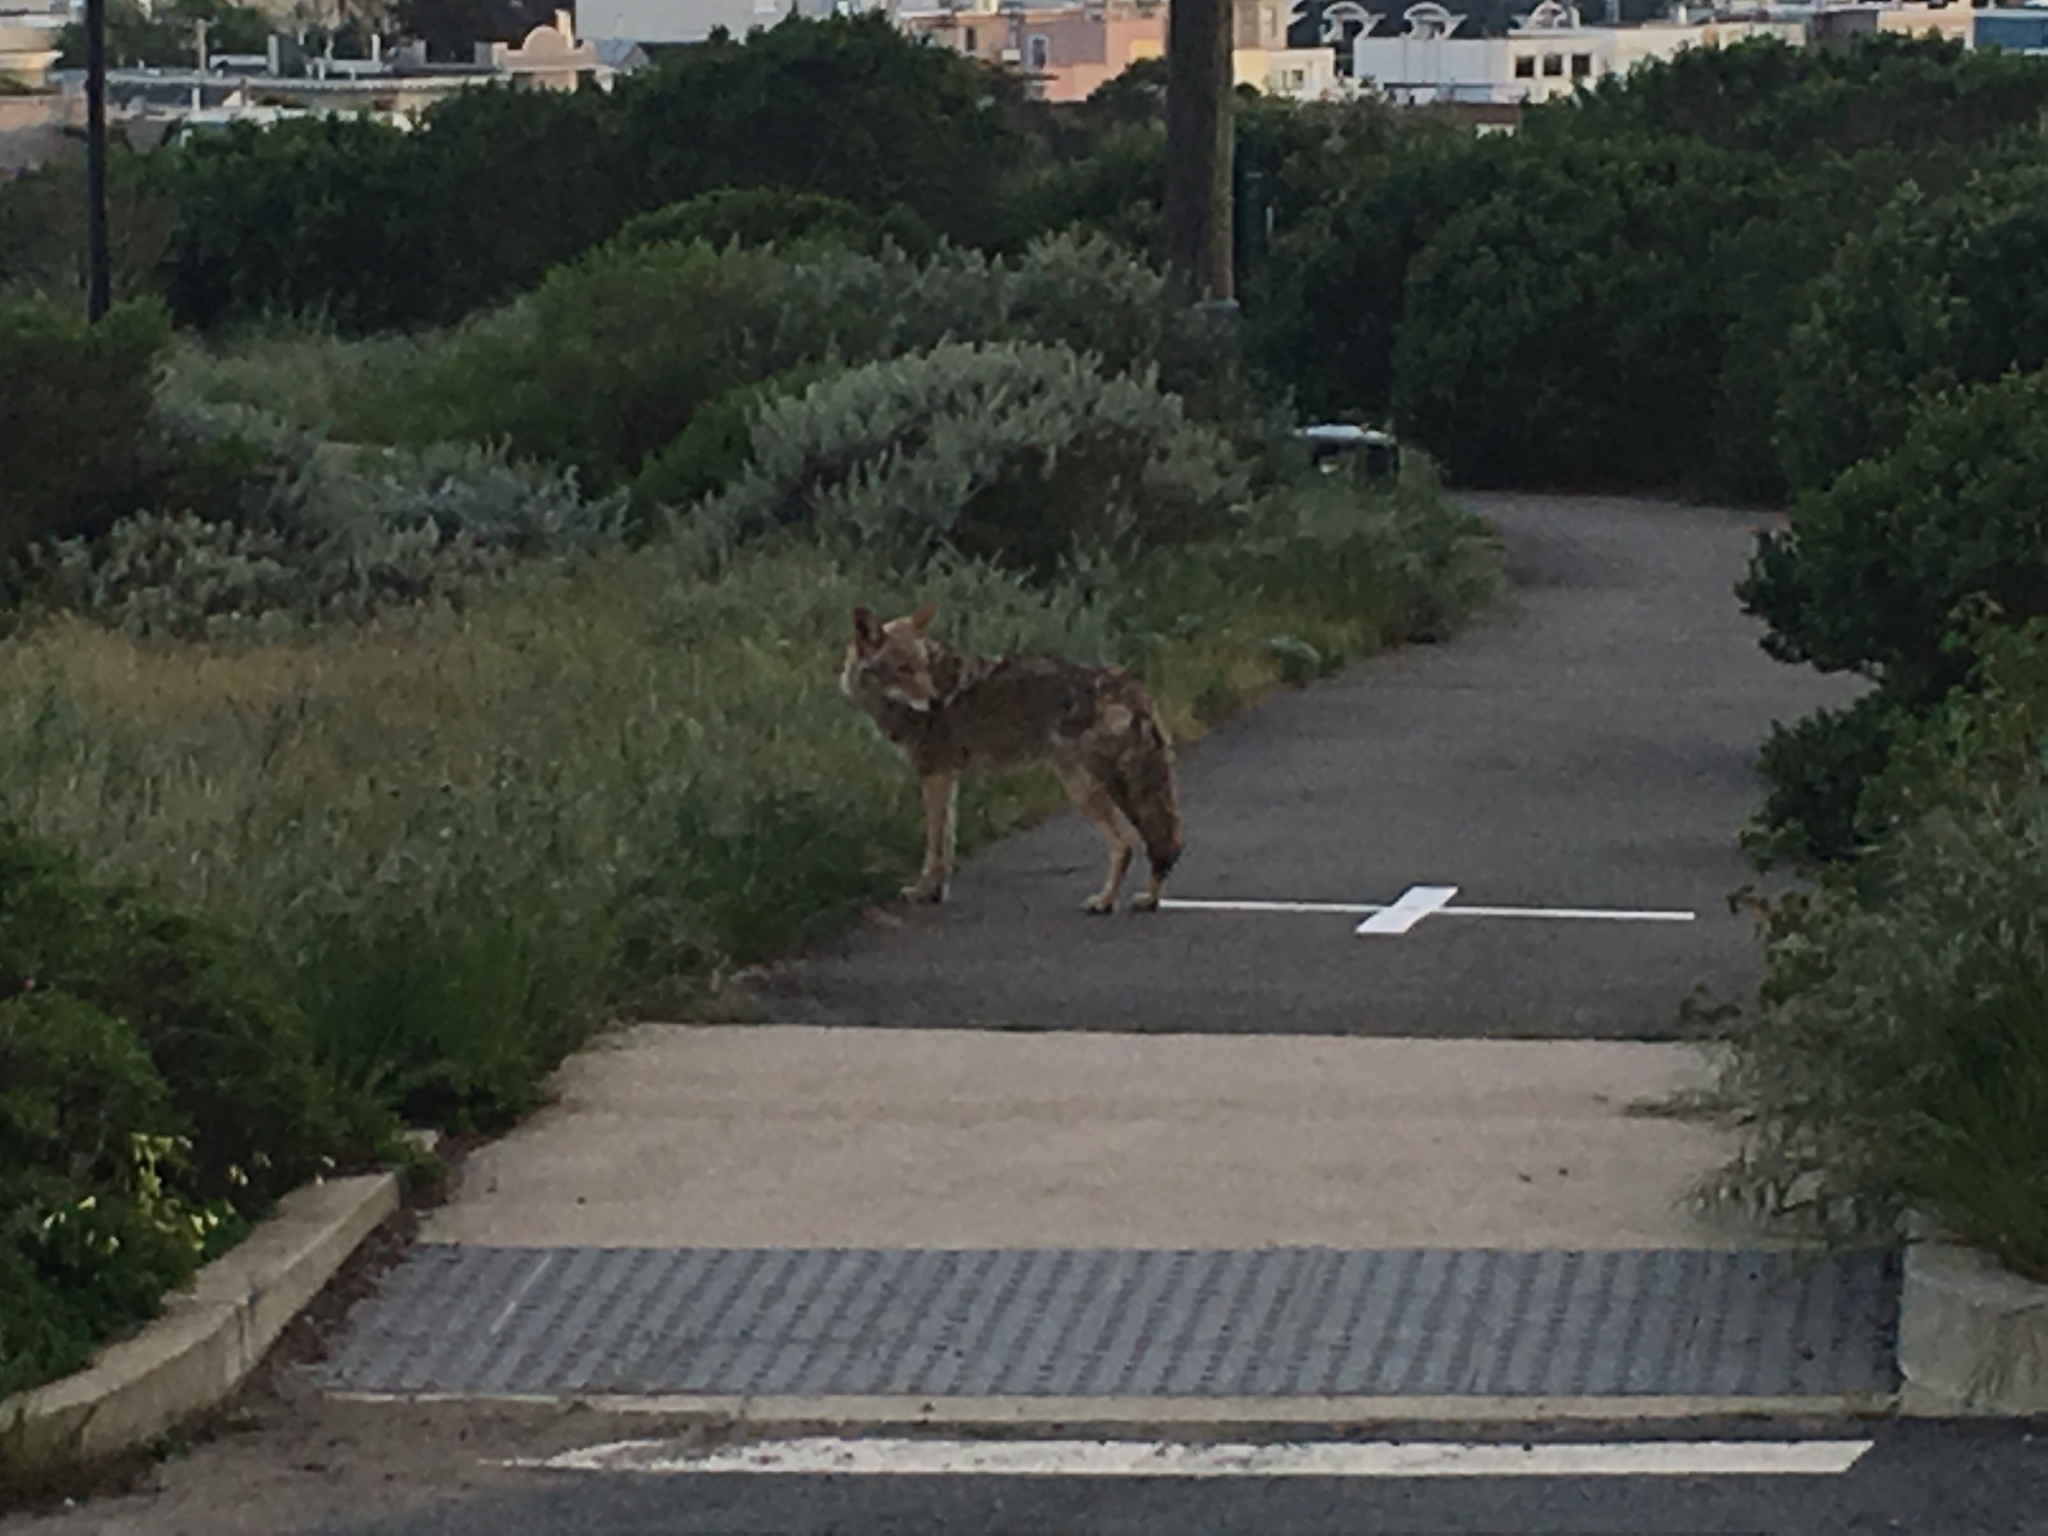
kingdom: Animalia
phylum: Chordata
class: Mammalia
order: Carnivora
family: Canidae
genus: Canis
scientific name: Canis latrans
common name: Coyote
